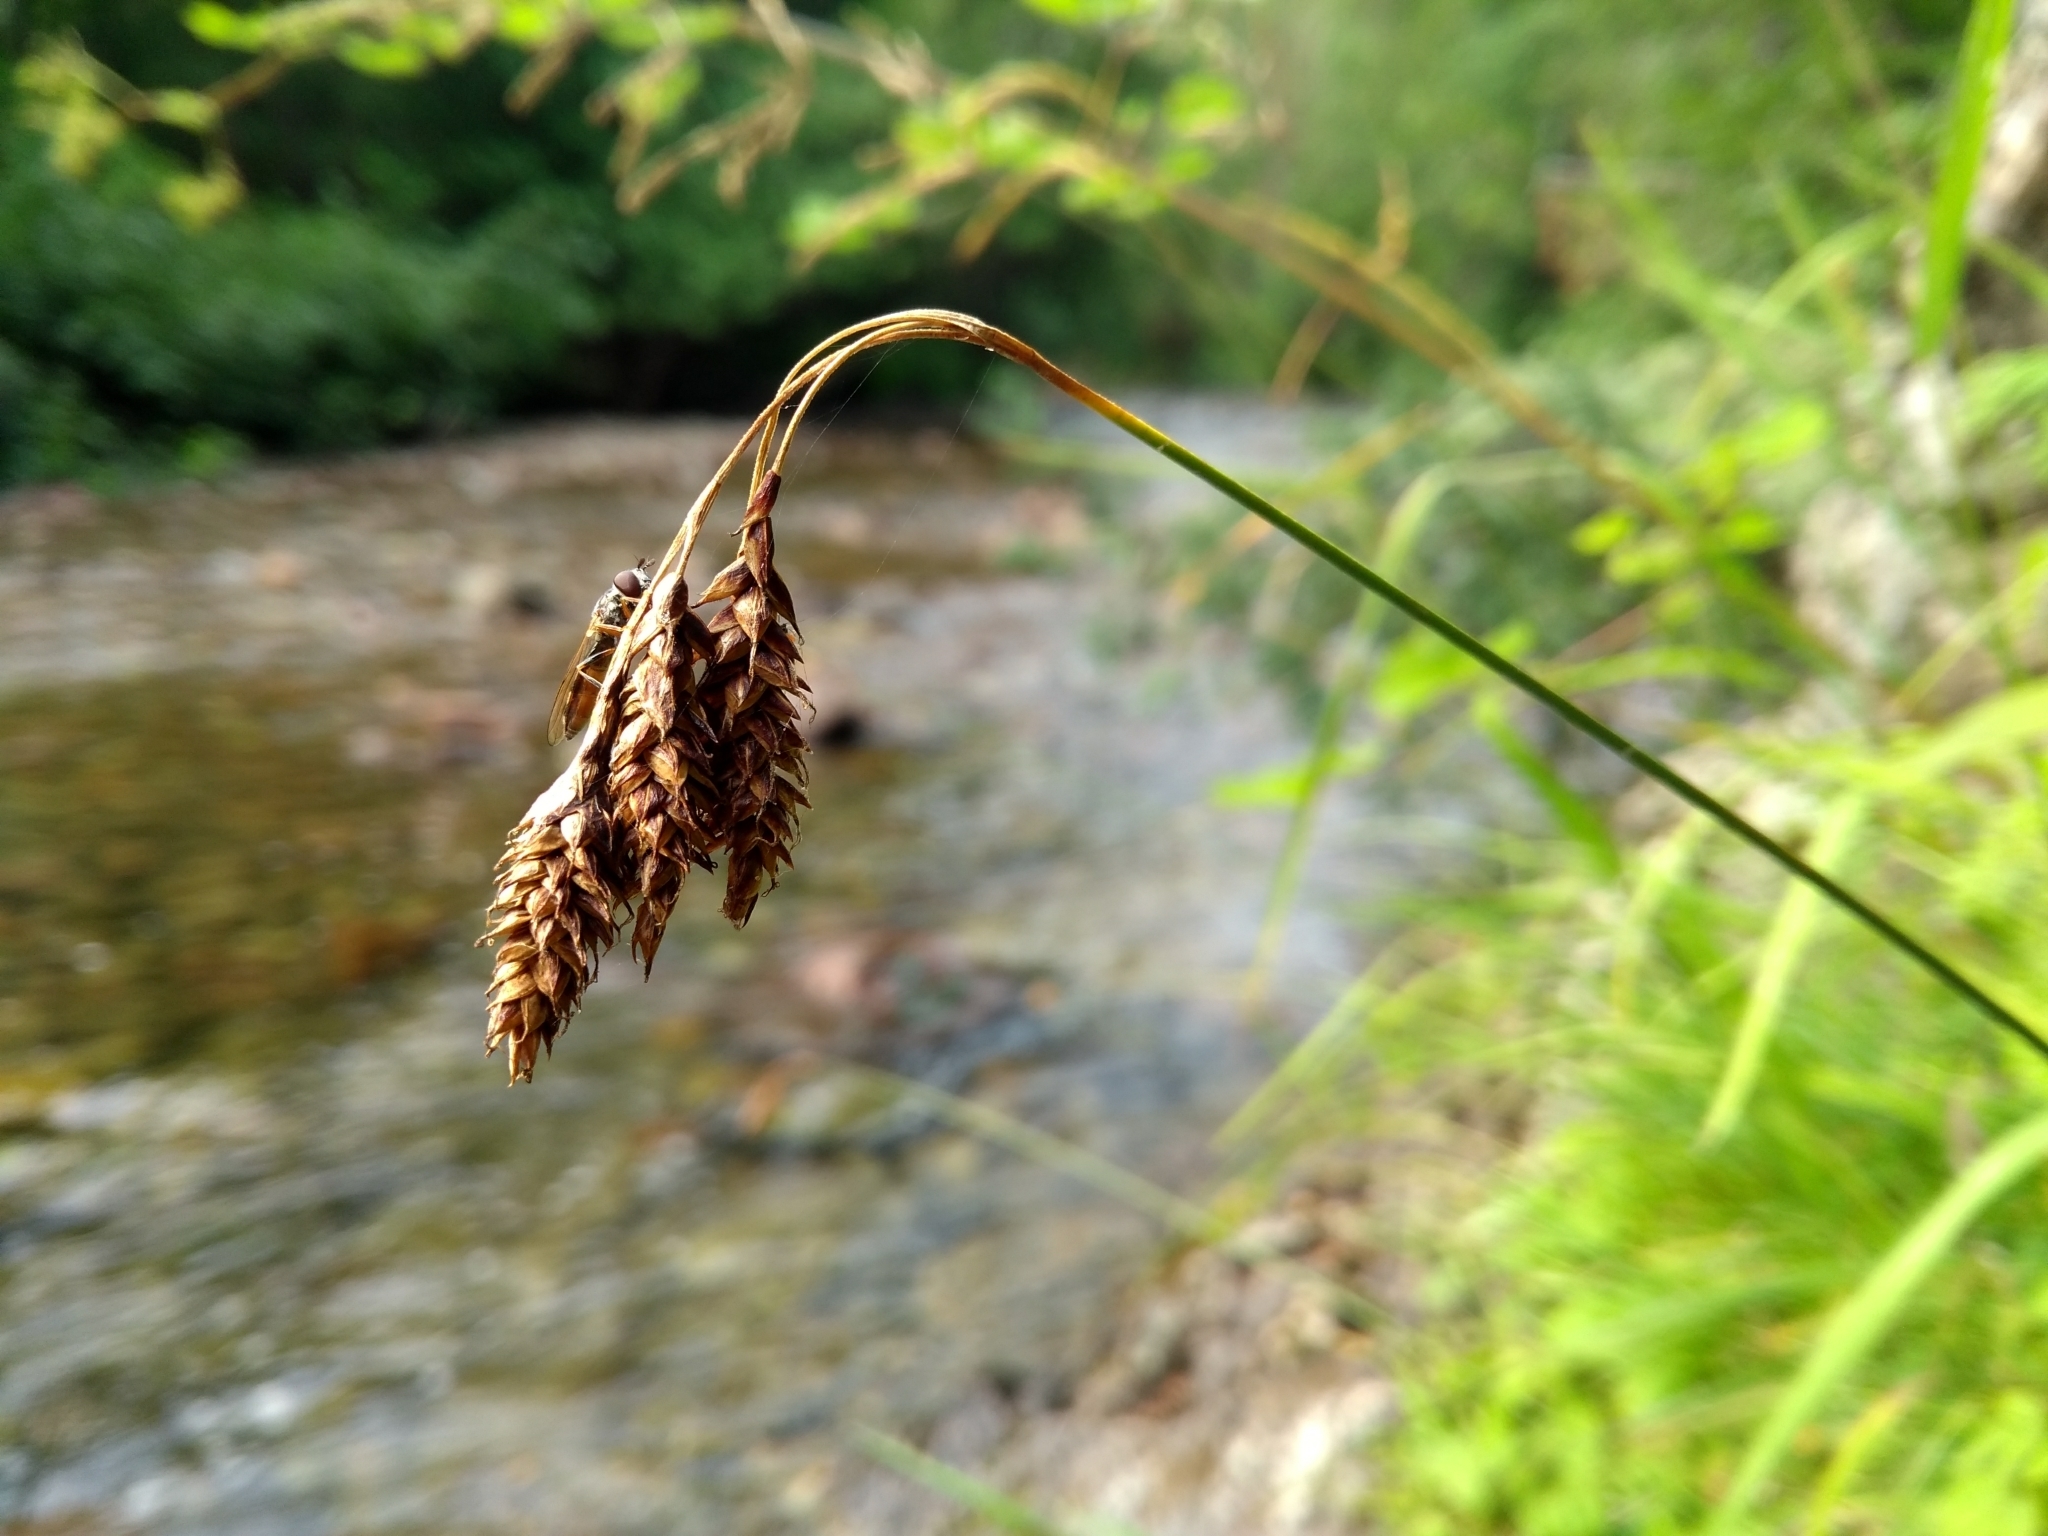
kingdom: Plantae
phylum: Tracheophyta
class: Liliopsida
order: Poales
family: Cyperaceae
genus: Carex
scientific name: Carex atratiformis
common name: Black sedge
